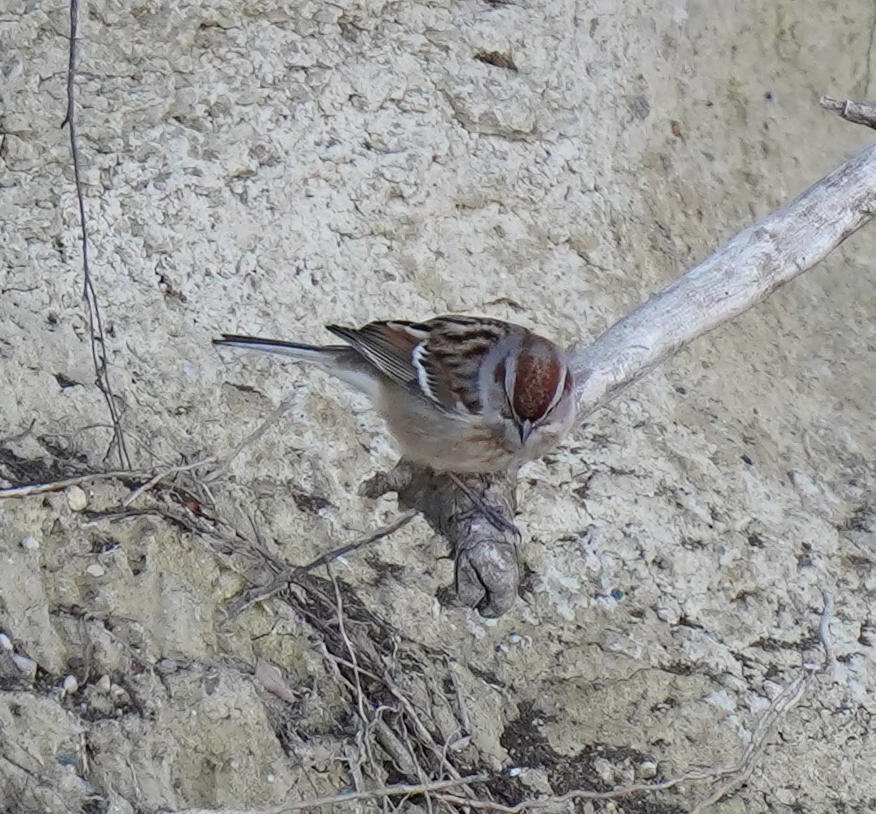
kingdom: Animalia
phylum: Chordata
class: Aves
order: Passeriformes
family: Passerellidae
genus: Spizelloides
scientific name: Spizelloides arborea
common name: American tree sparrow
